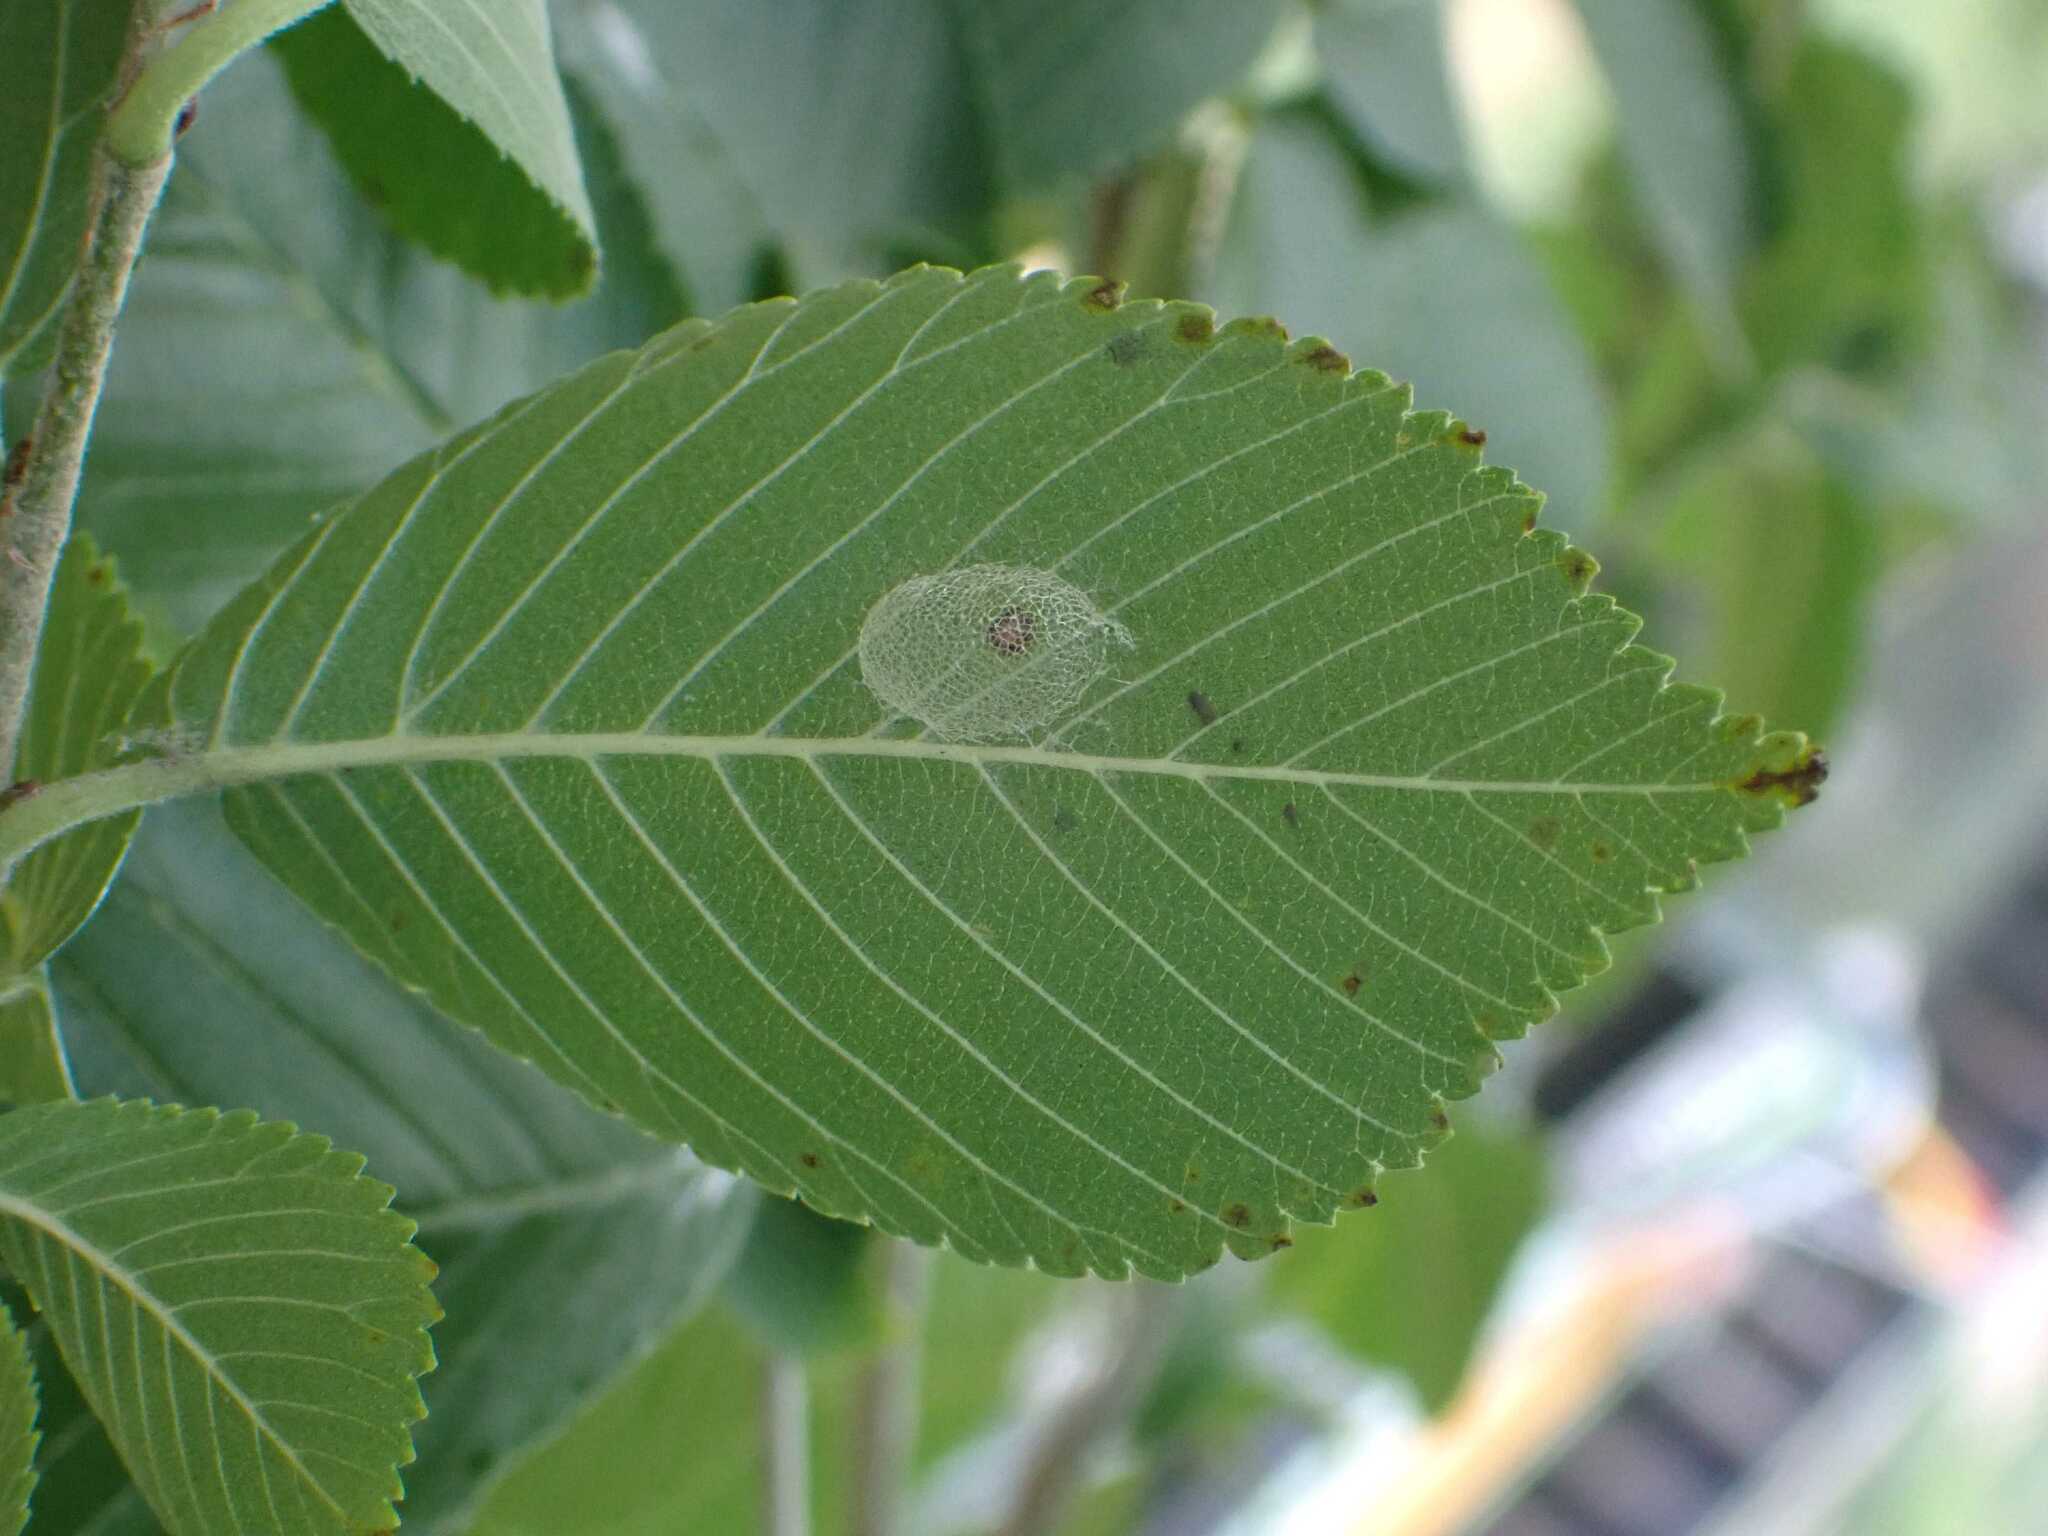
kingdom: Animalia
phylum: Arthropoda
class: Insecta
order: Hymenoptera
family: Argidae
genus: Aproceros
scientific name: Aproceros leucopoda
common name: Zig-zag elm sawfly
